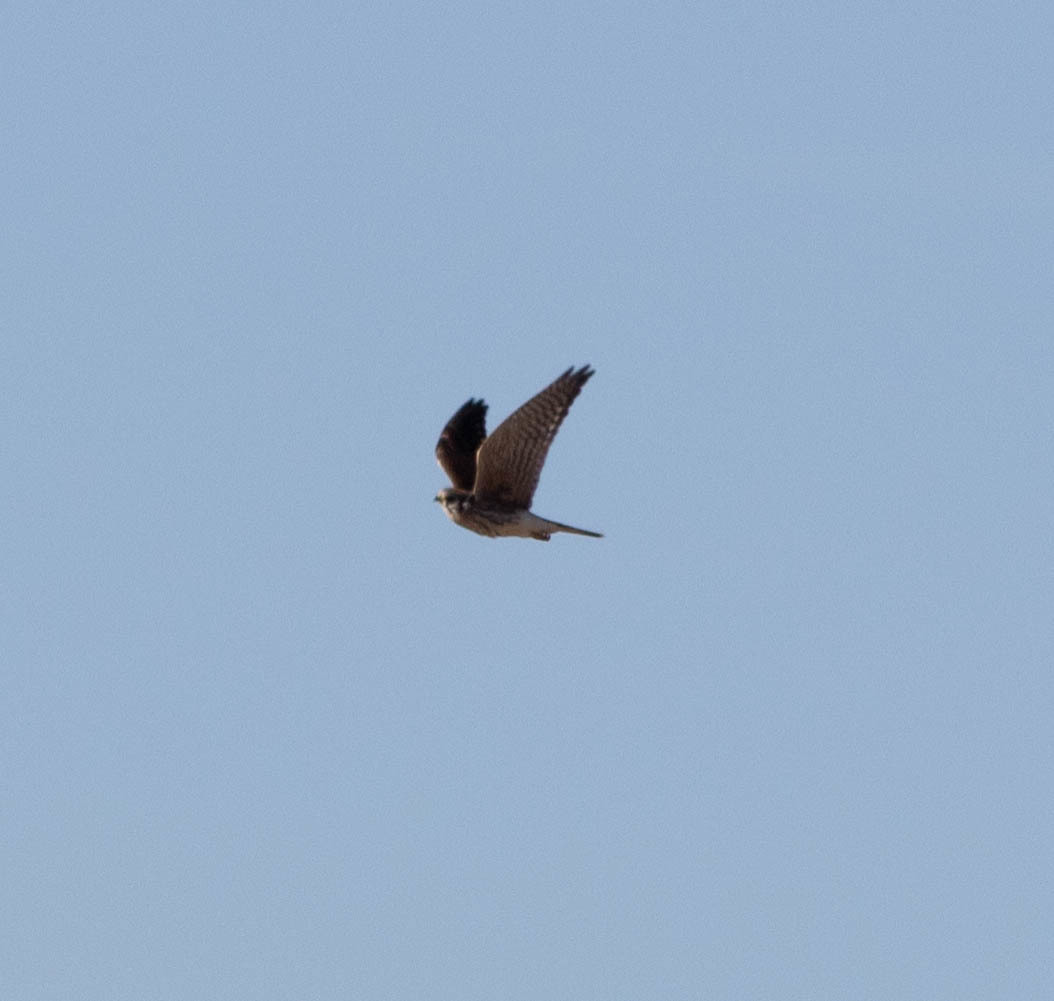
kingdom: Animalia
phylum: Chordata
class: Aves
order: Falconiformes
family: Falconidae
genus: Falco
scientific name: Falco sparverius
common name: American kestrel
